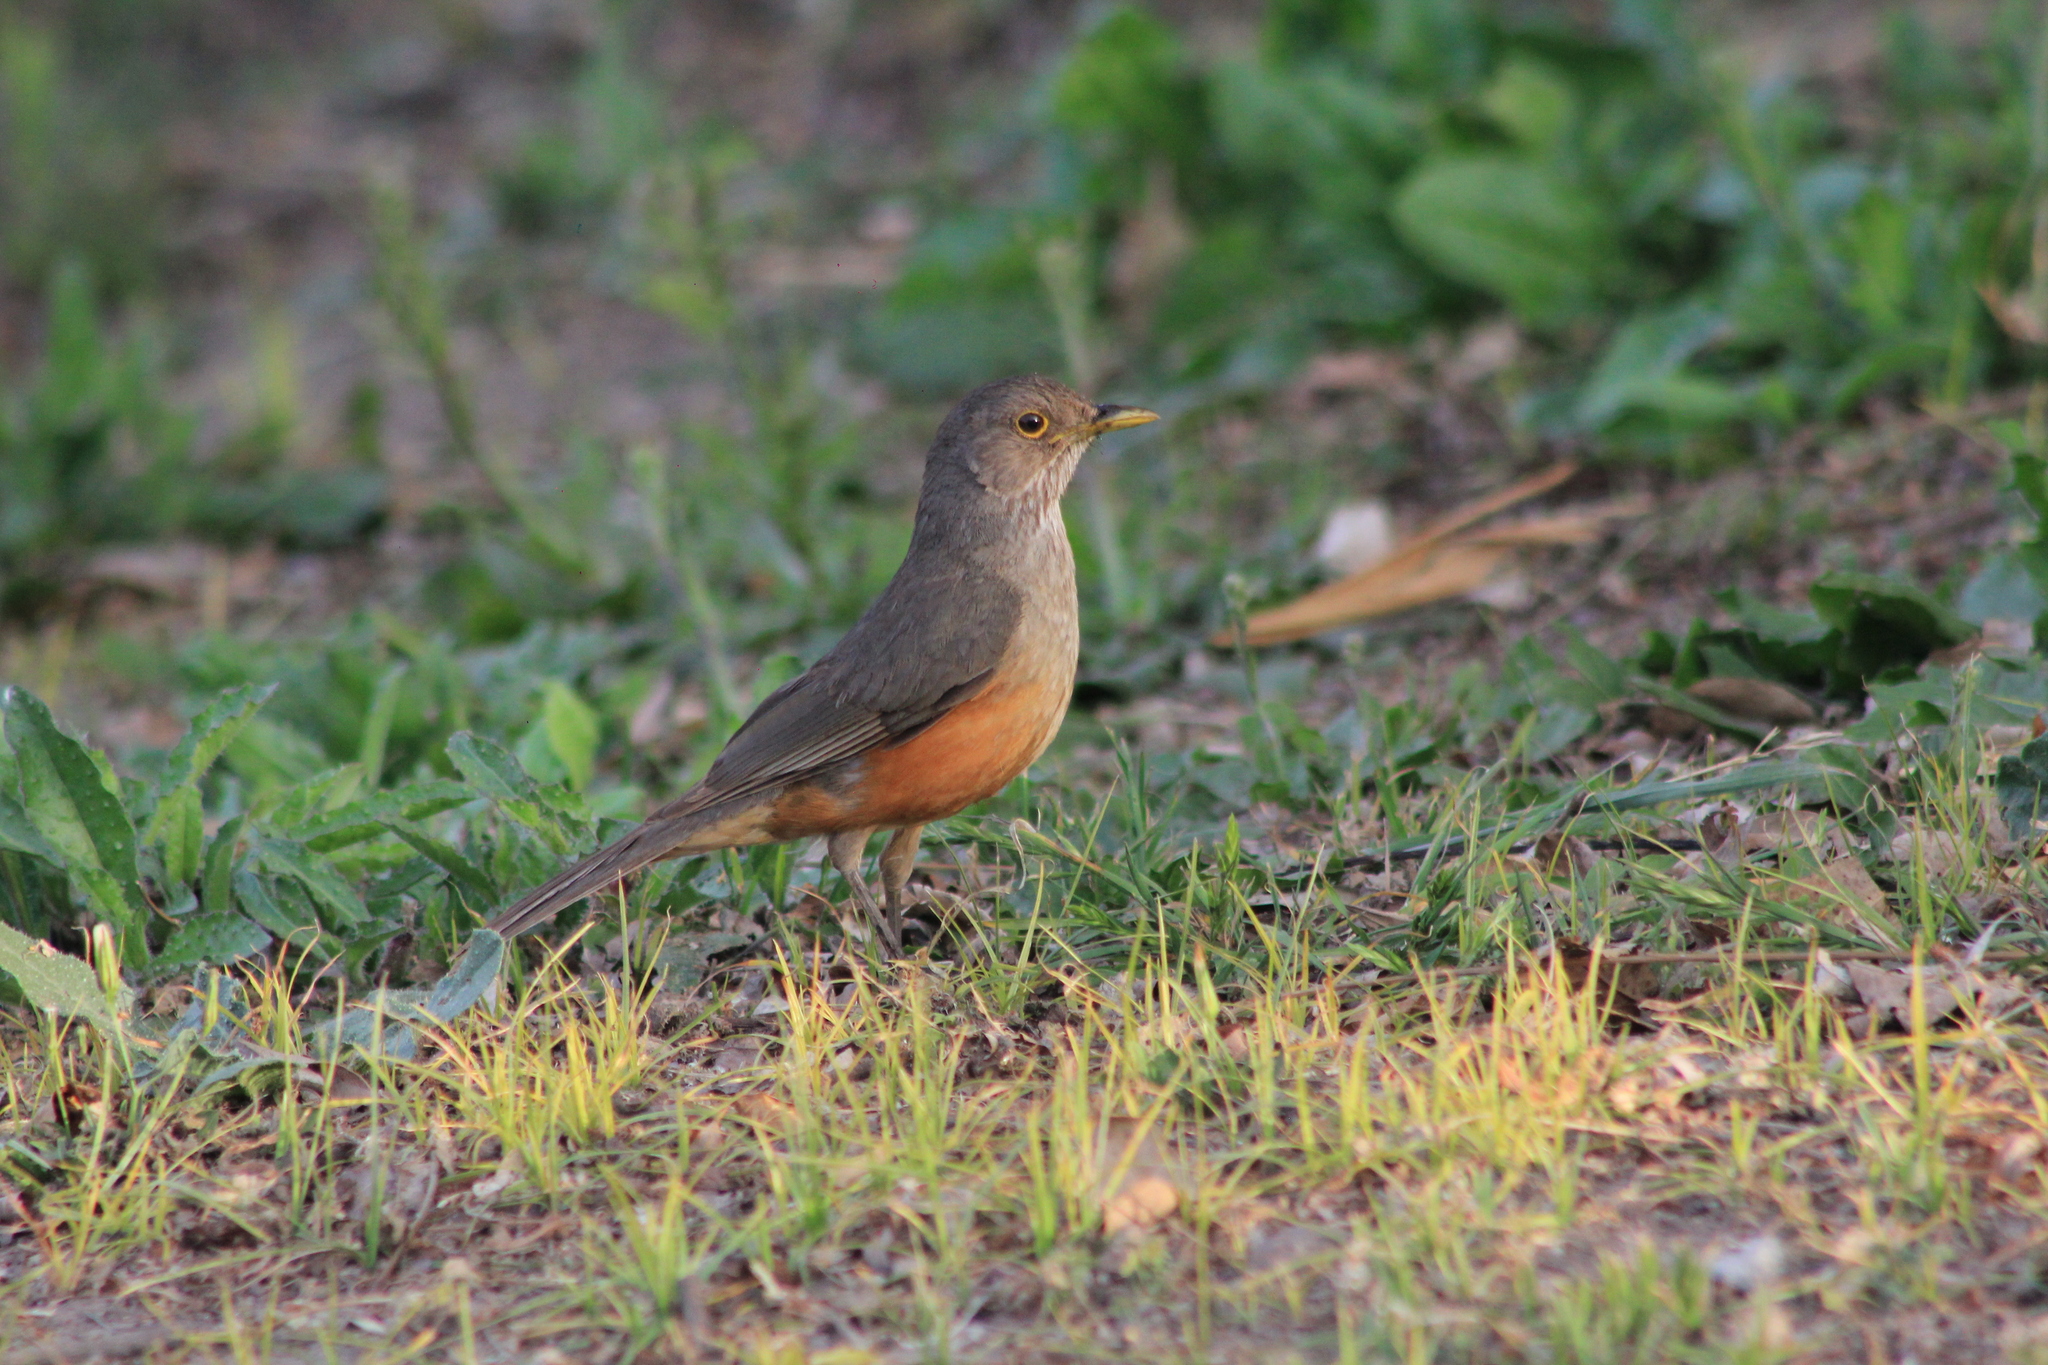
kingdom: Animalia
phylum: Chordata
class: Aves
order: Passeriformes
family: Turdidae
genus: Turdus
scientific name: Turdus rufiventris
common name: Rufous-bellied thrush
